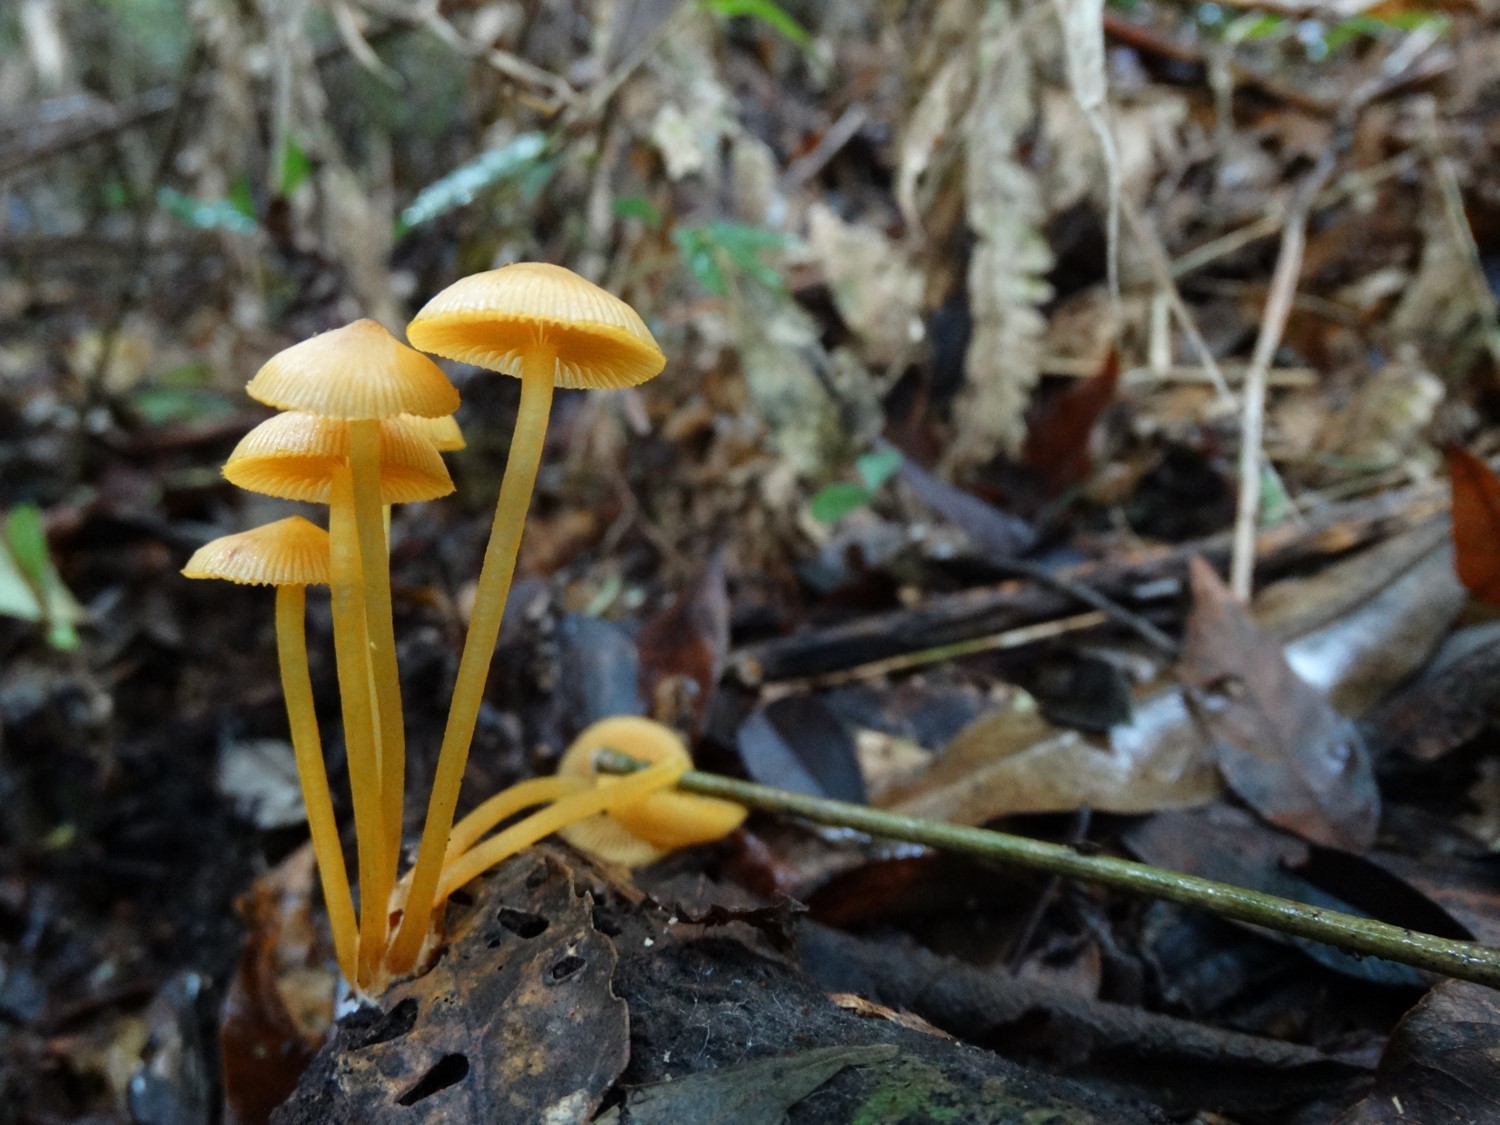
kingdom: Fungi
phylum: Basidiomycota
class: Agaricomycetes
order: Agaricales
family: Mycenaceae
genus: Mycena
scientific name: Mycena leaiana
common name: Orange mycena
